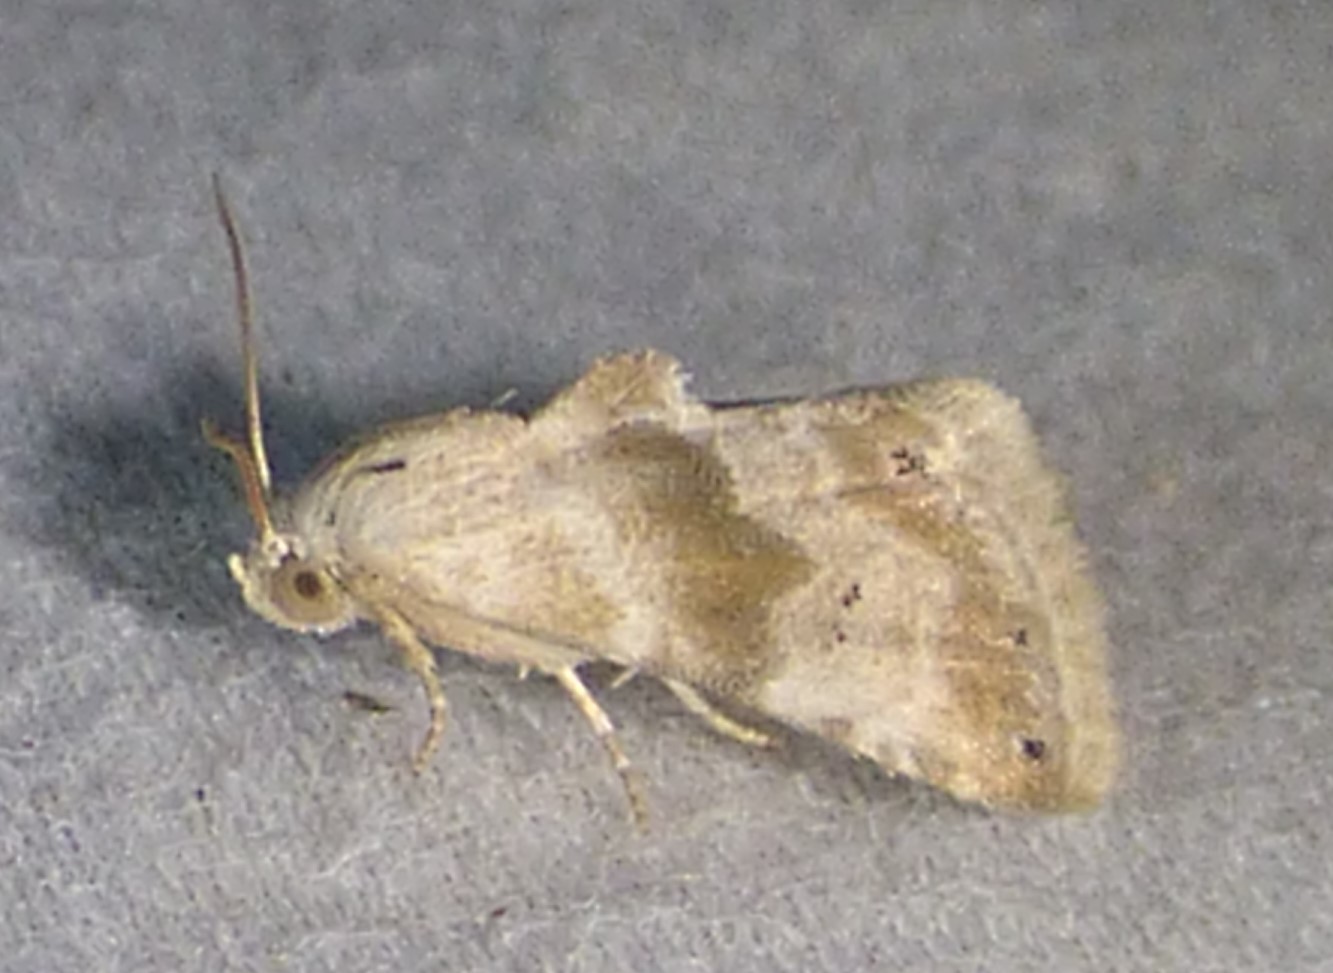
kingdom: Animalia
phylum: Arthropoda
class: Insecta
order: Lepidoptera
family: Noctuidae
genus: Eublemma
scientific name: Eublemma minima
